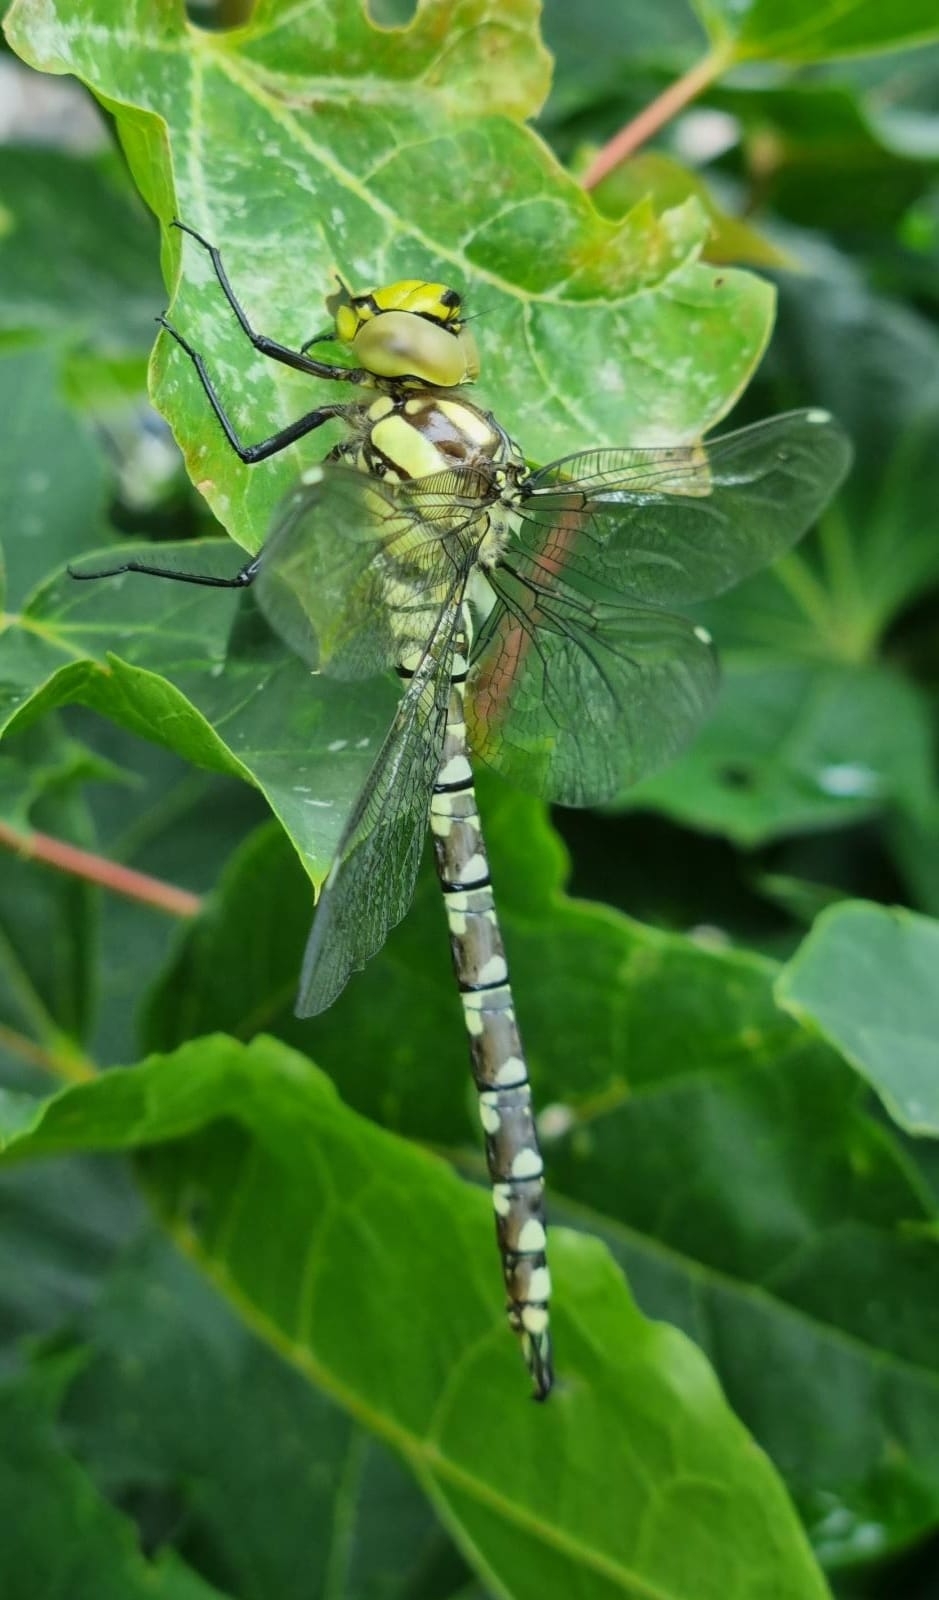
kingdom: Animalia
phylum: Arthropoda
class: Insecta
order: Odonata
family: Aeshnidae
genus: Aeshna
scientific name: Aeshna cyanea
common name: Southern hawker
